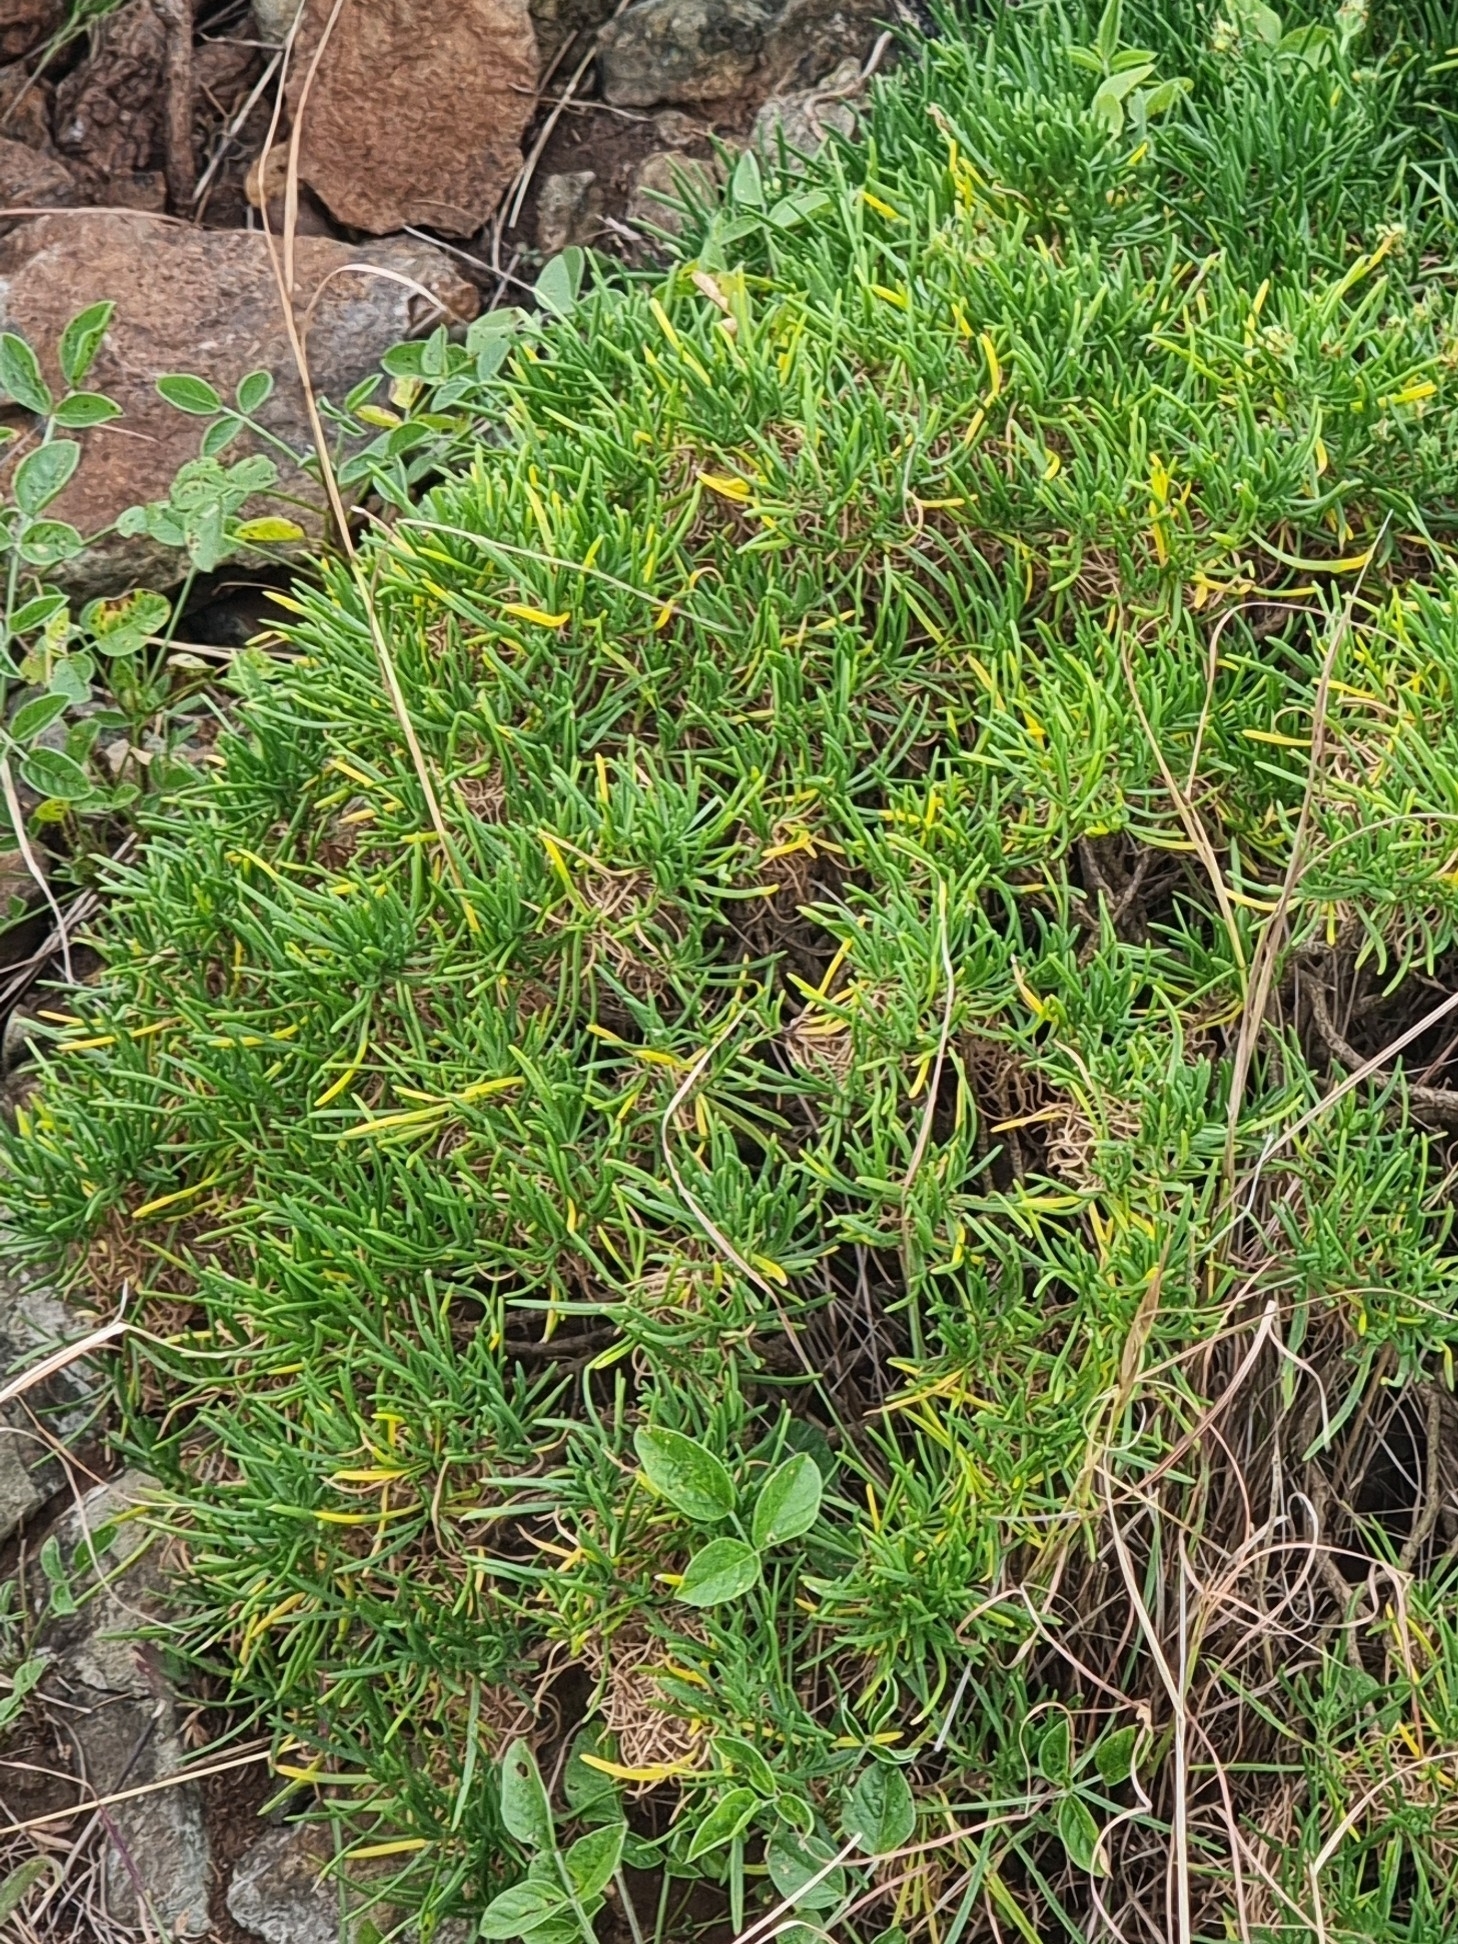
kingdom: Plantae
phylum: Tracheophyta
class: Magnoliopsida
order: Lamiales
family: Plantaginaceae
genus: Plantago
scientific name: Plantago arborescens
